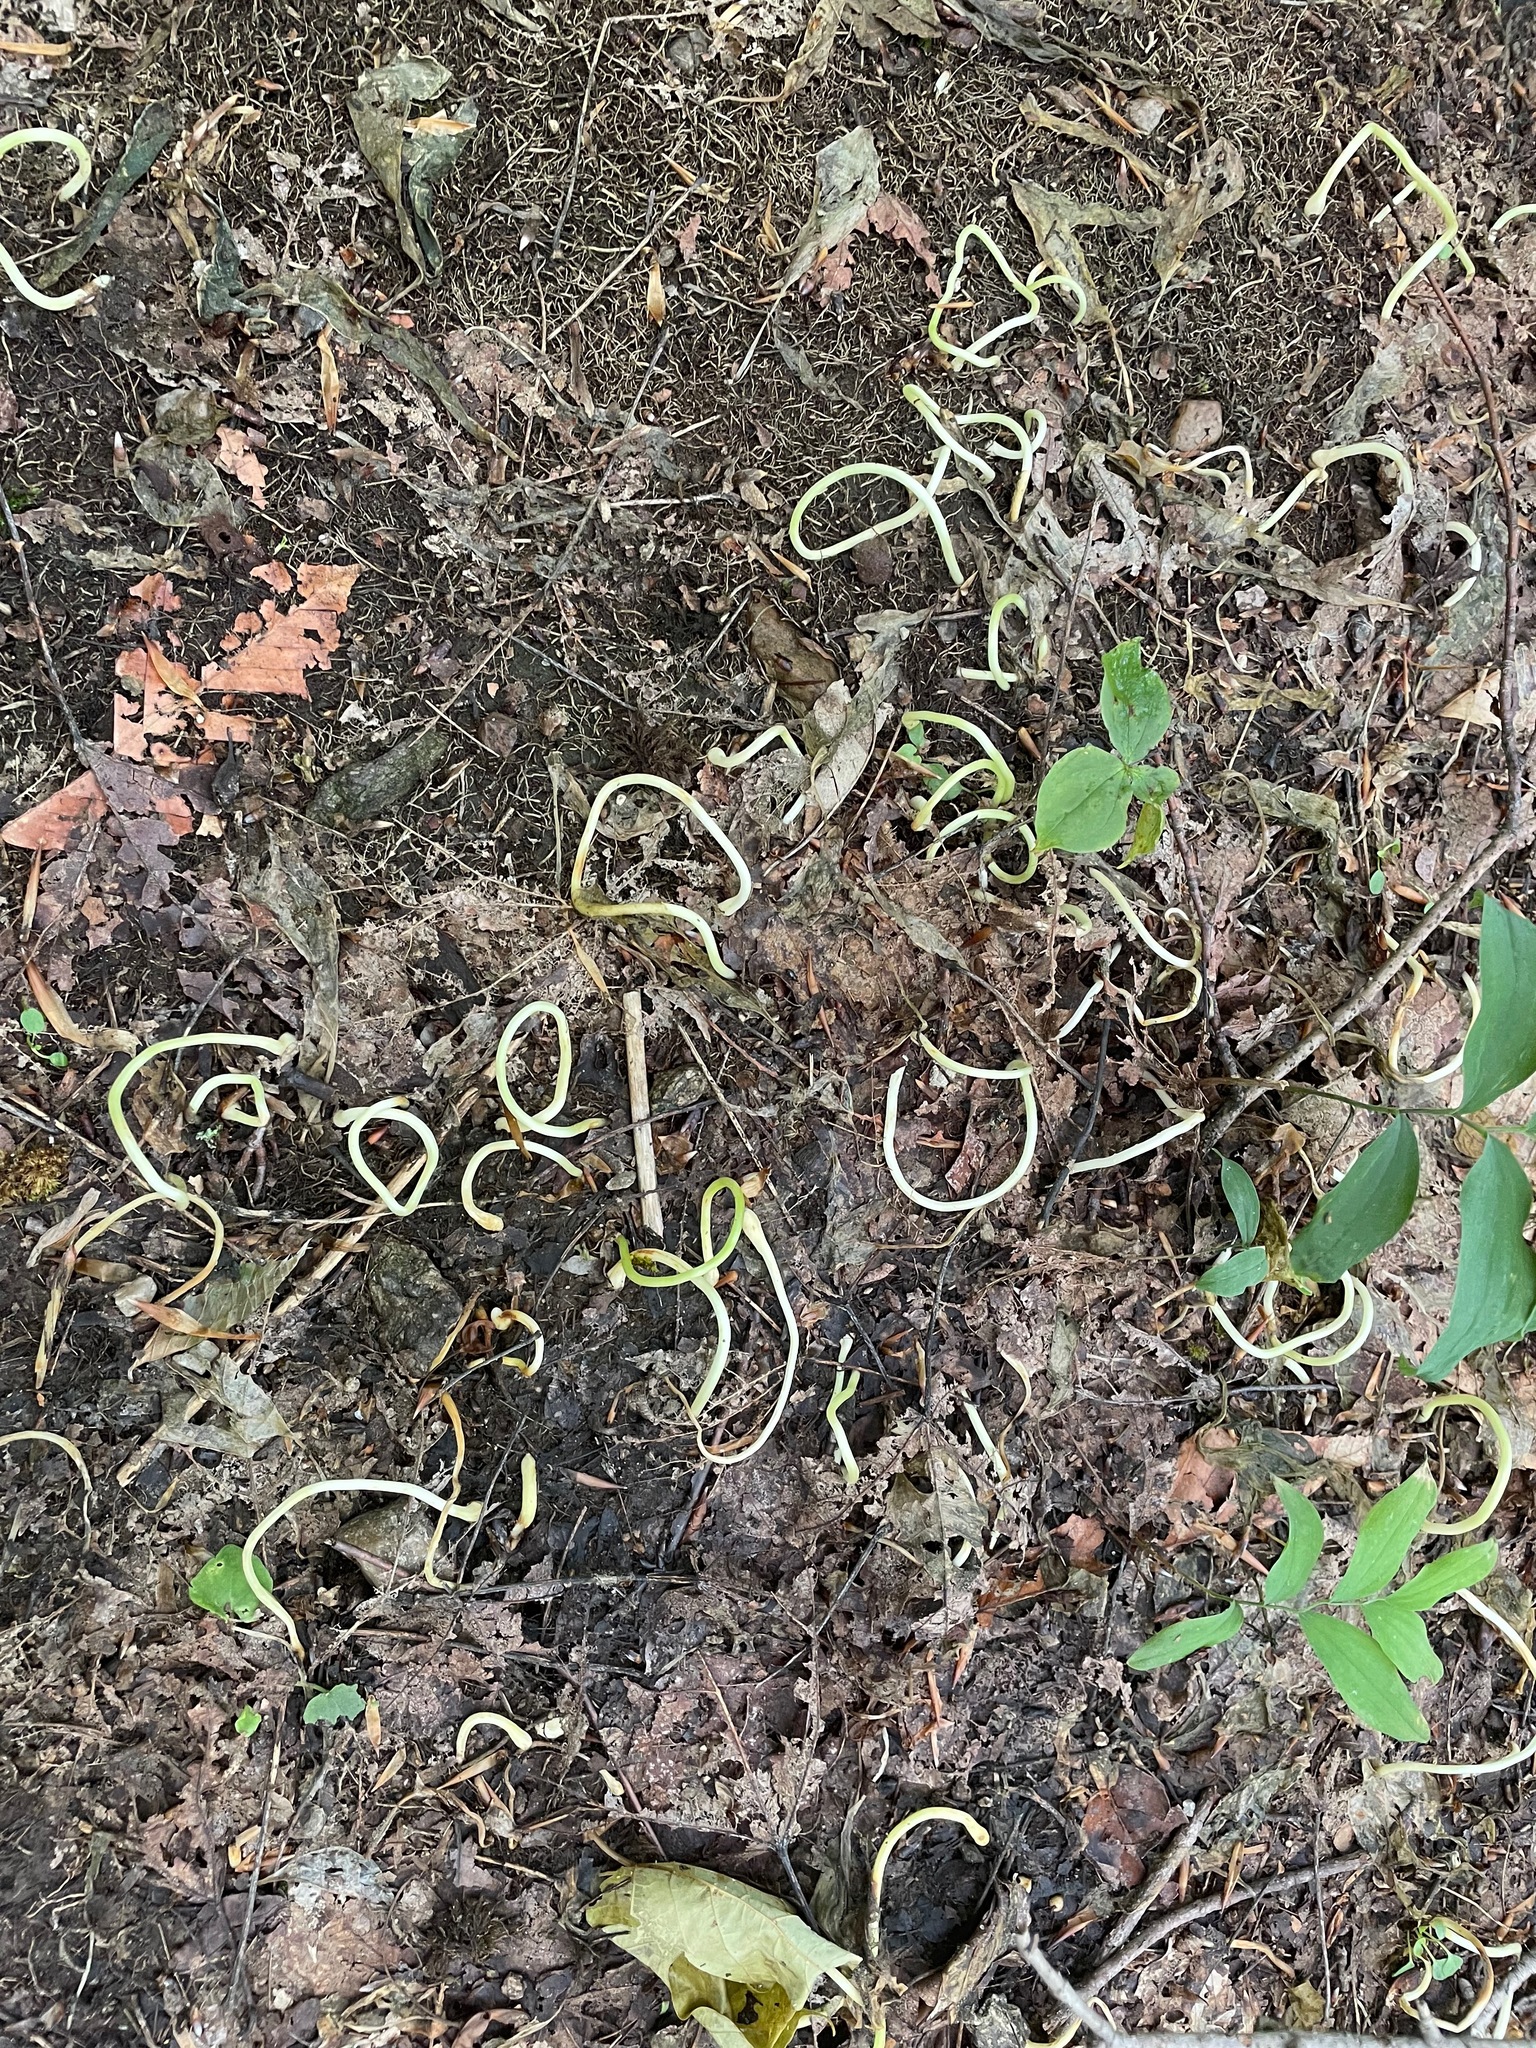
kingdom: Plantae
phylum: Tracheophyta
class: Liliopsida
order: Liliales
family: Liliaceae
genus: Erythronium
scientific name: Erythronium americanum
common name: Yellow adder's-tongue
